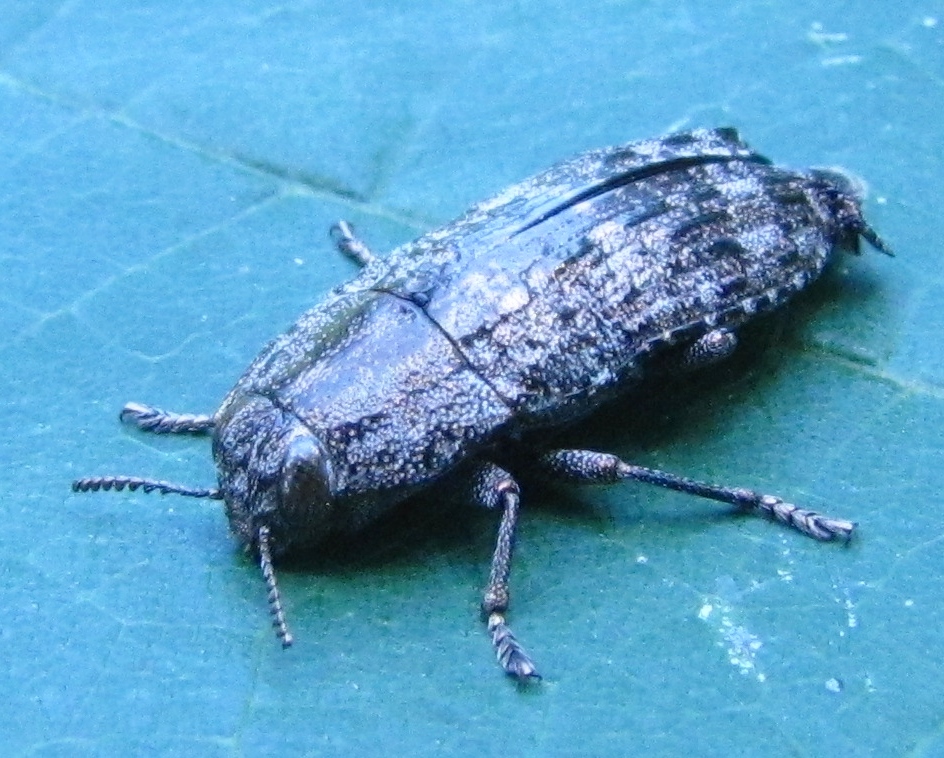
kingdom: Animalia
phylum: Arthropoda
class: Insecta
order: Coleoptera
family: Buprestidae
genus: Dicerca
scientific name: Dicerca obscura
